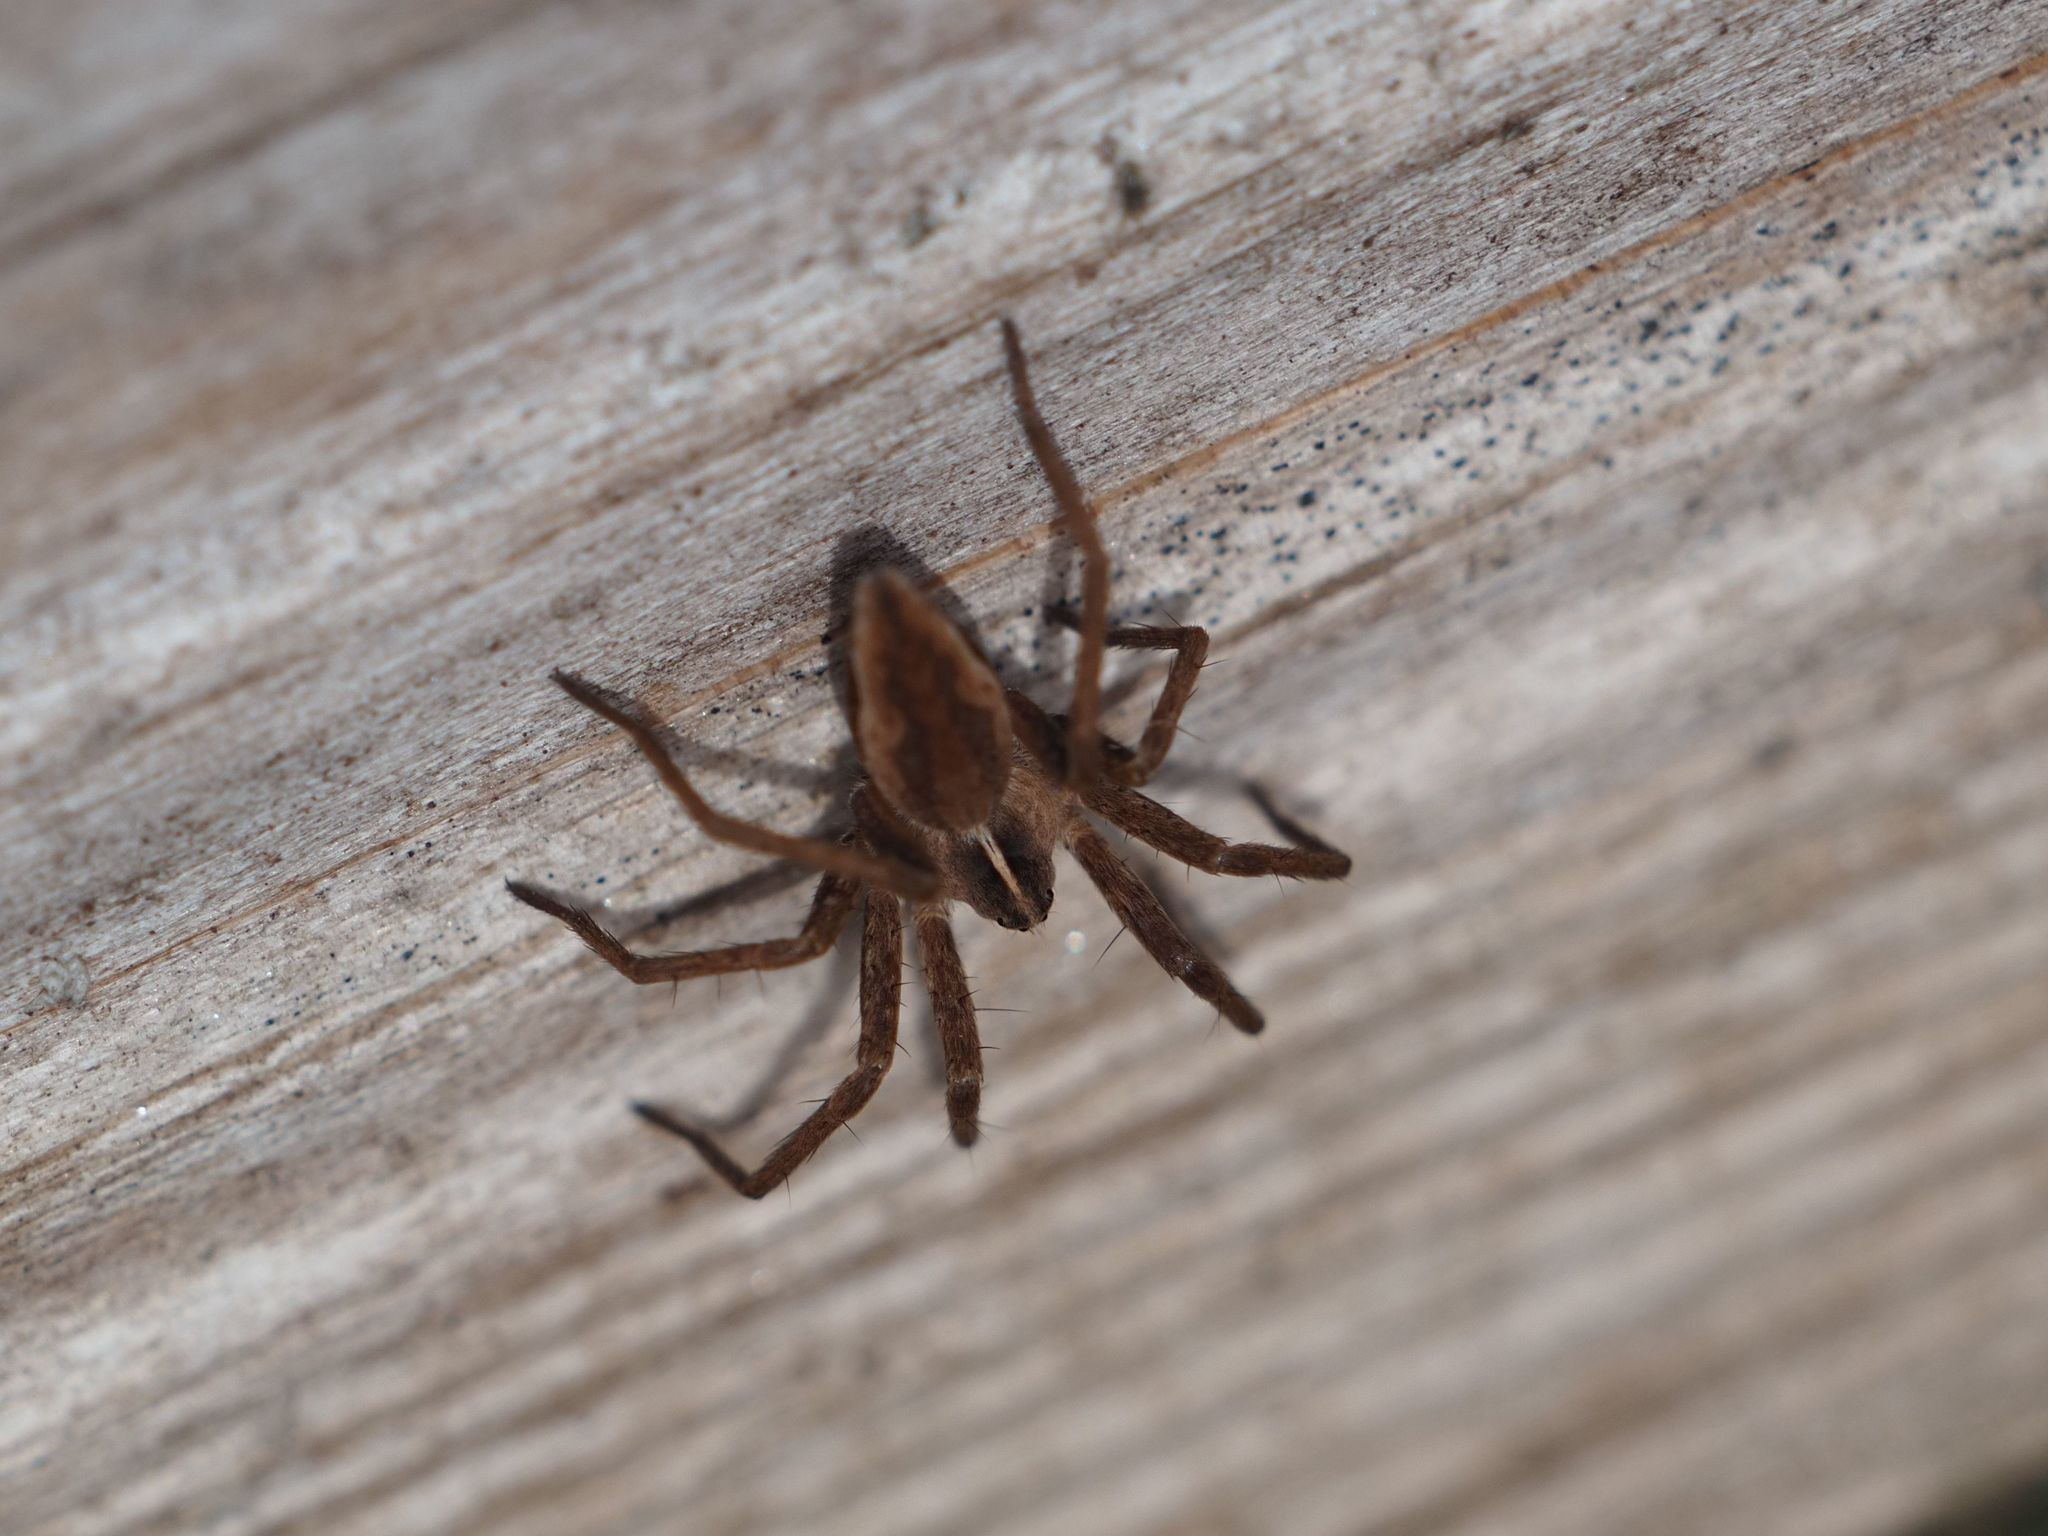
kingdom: Animalia
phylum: Arthropoda
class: Arachnida
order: Araneae
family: Pisauridae
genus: Pisaura
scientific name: Pisaura mirabilis
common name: Tent spider
